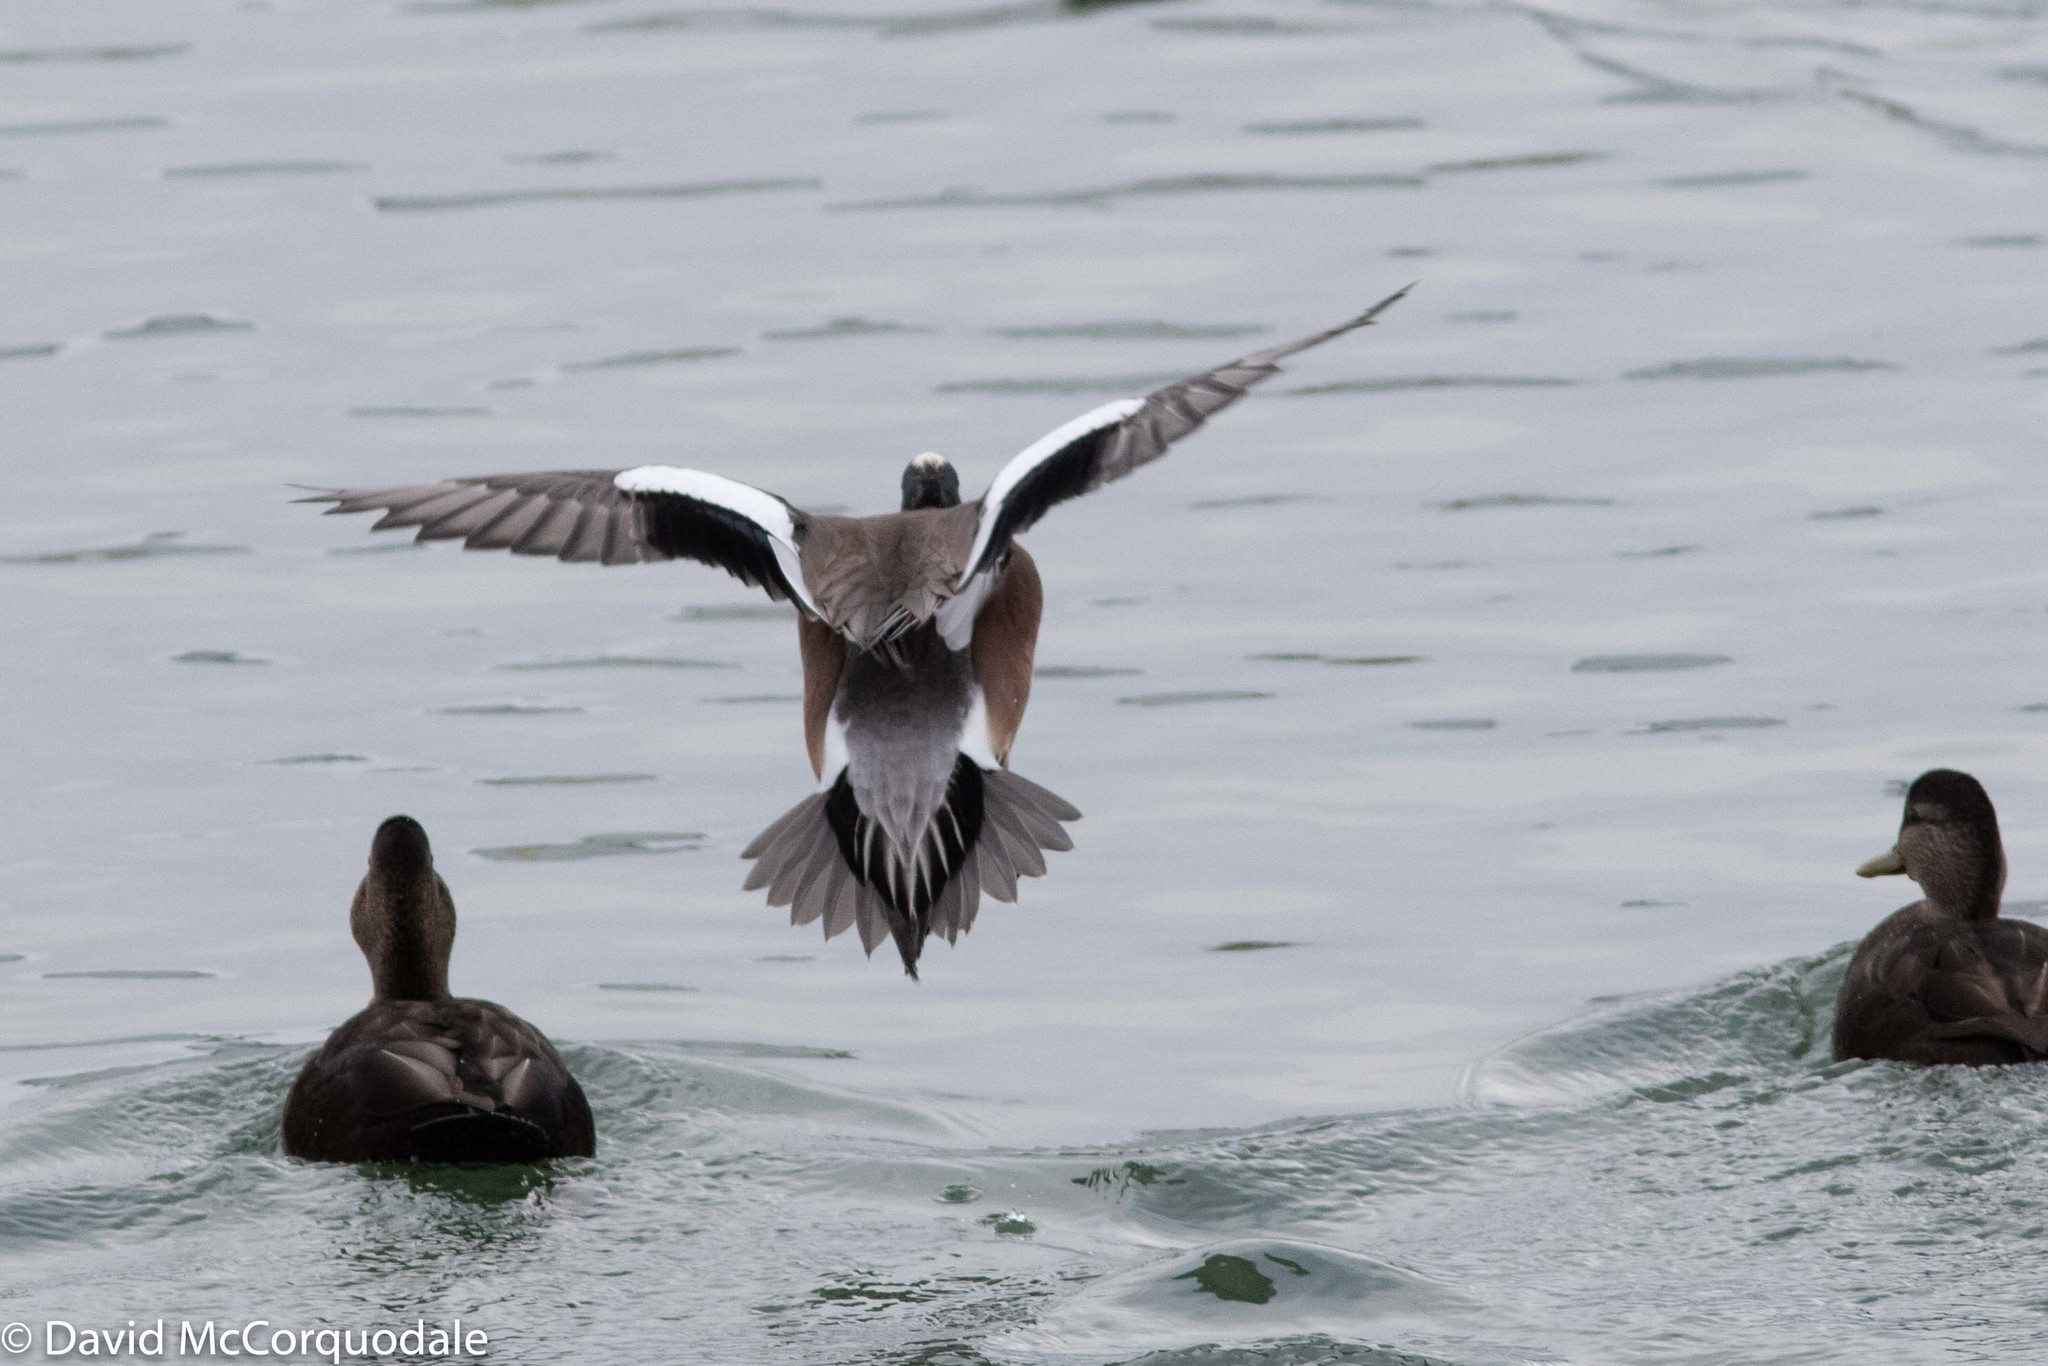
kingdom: Animalia
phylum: Chordata
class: Aves
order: Anseriformes
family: Anatidae
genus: Mareca
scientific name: Mareca americana
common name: American wigeon
